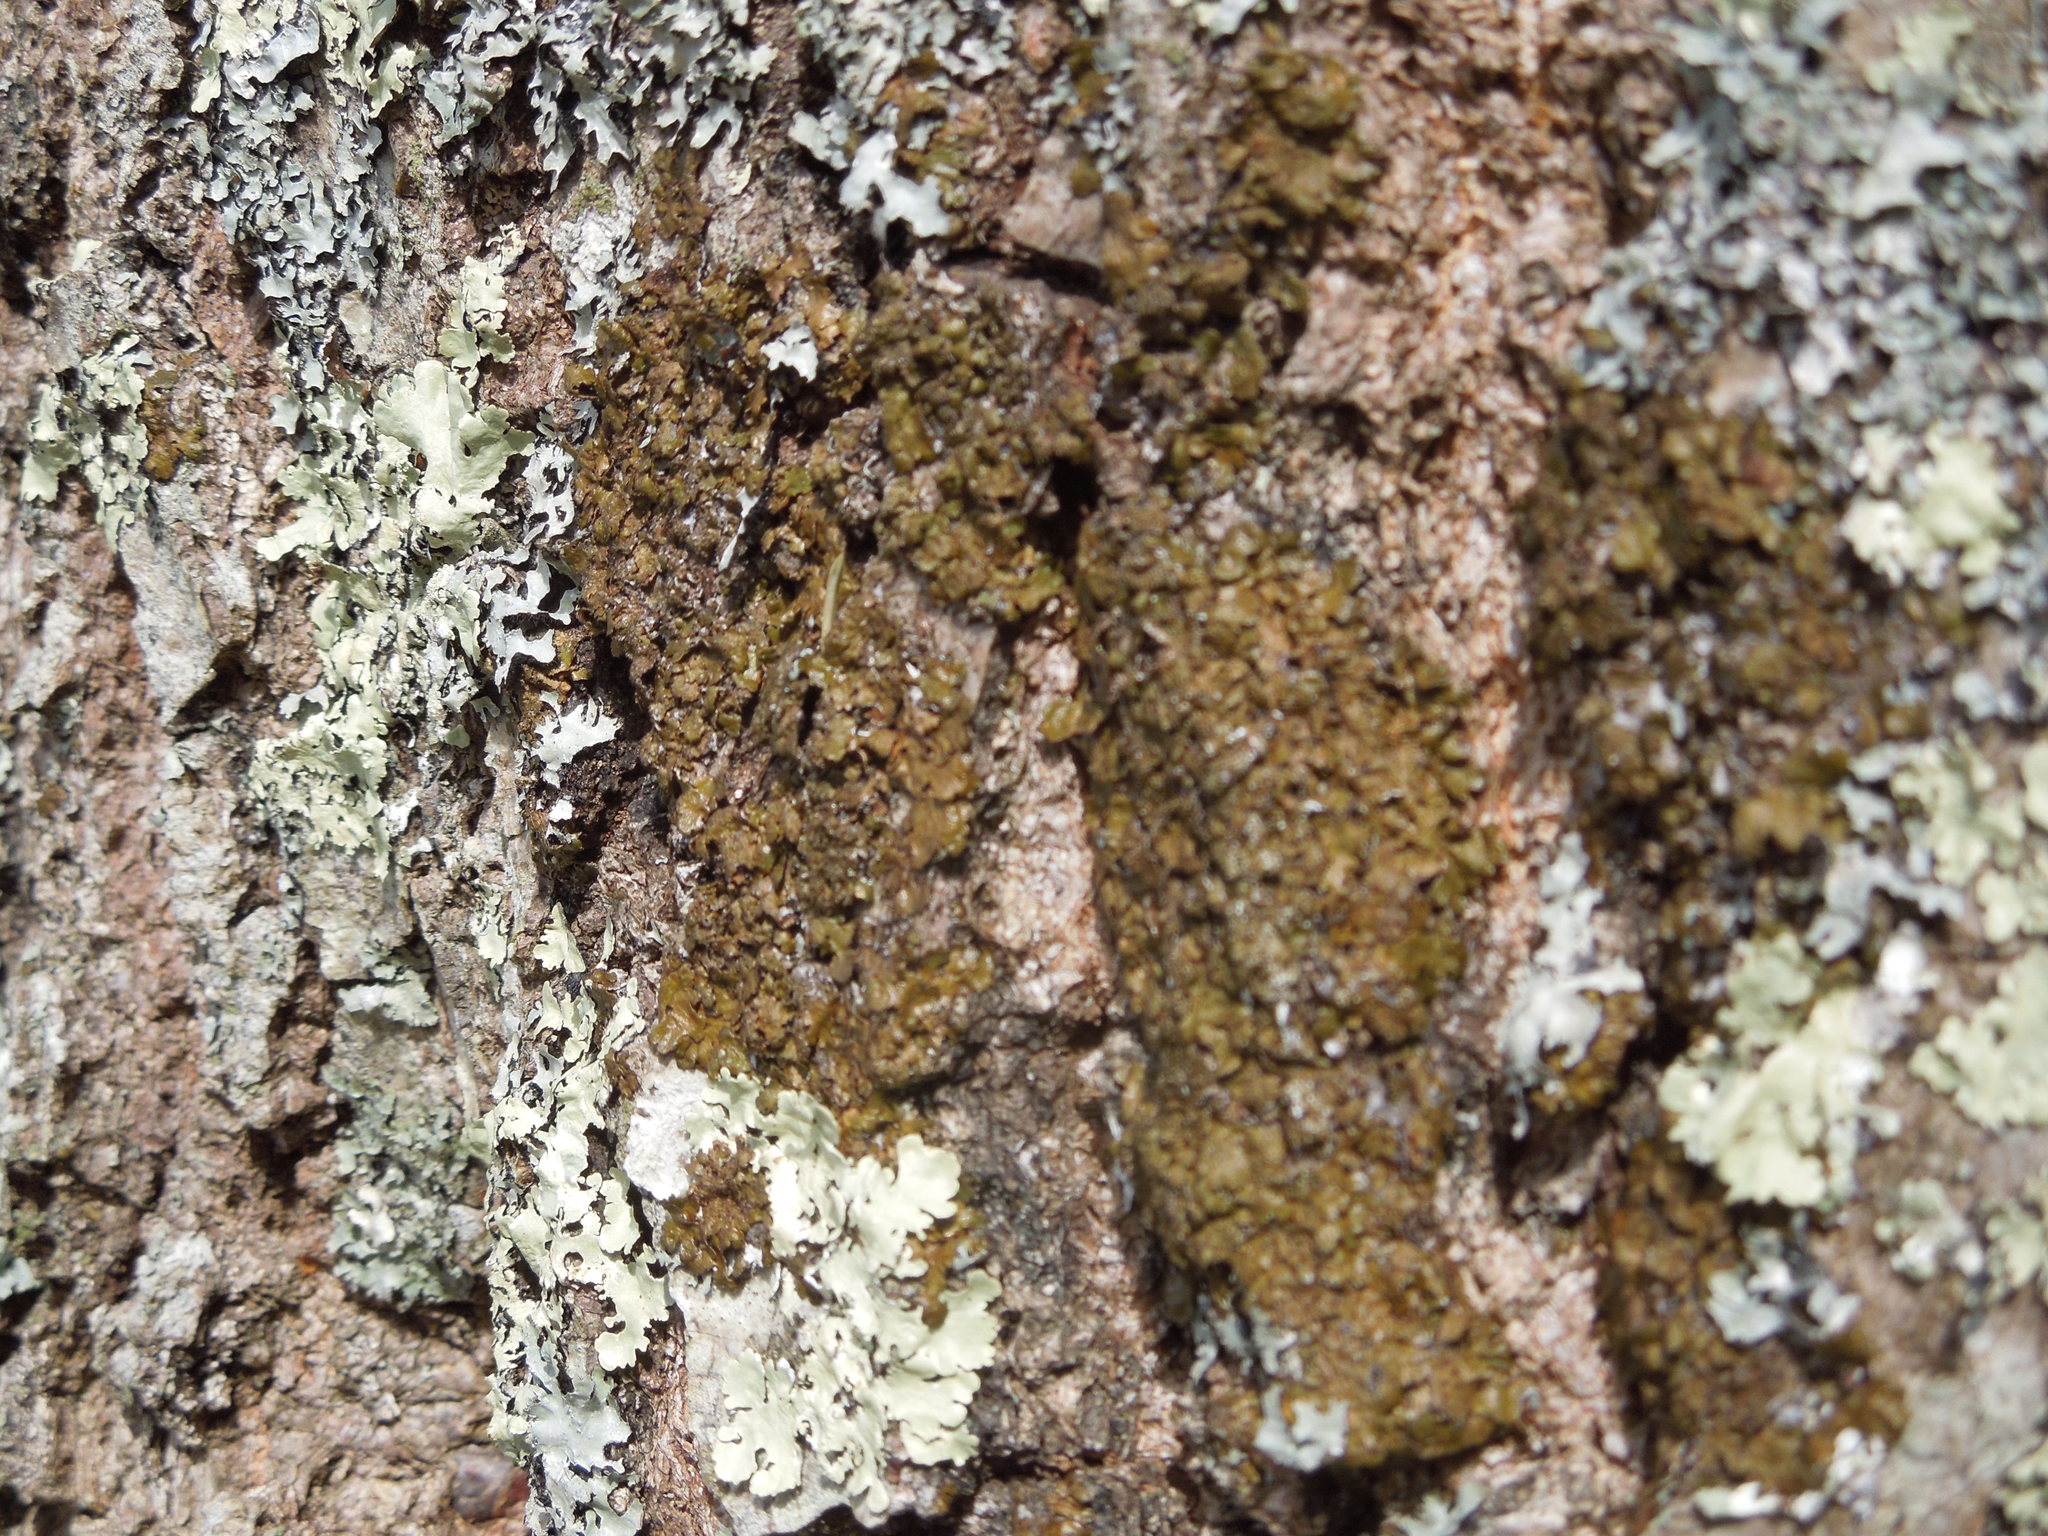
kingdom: Fungi
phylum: Ascomycota
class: Lecanoromycetes
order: Lecanorales
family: Parmeliaceae
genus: Melanelixia
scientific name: Melanelixia
